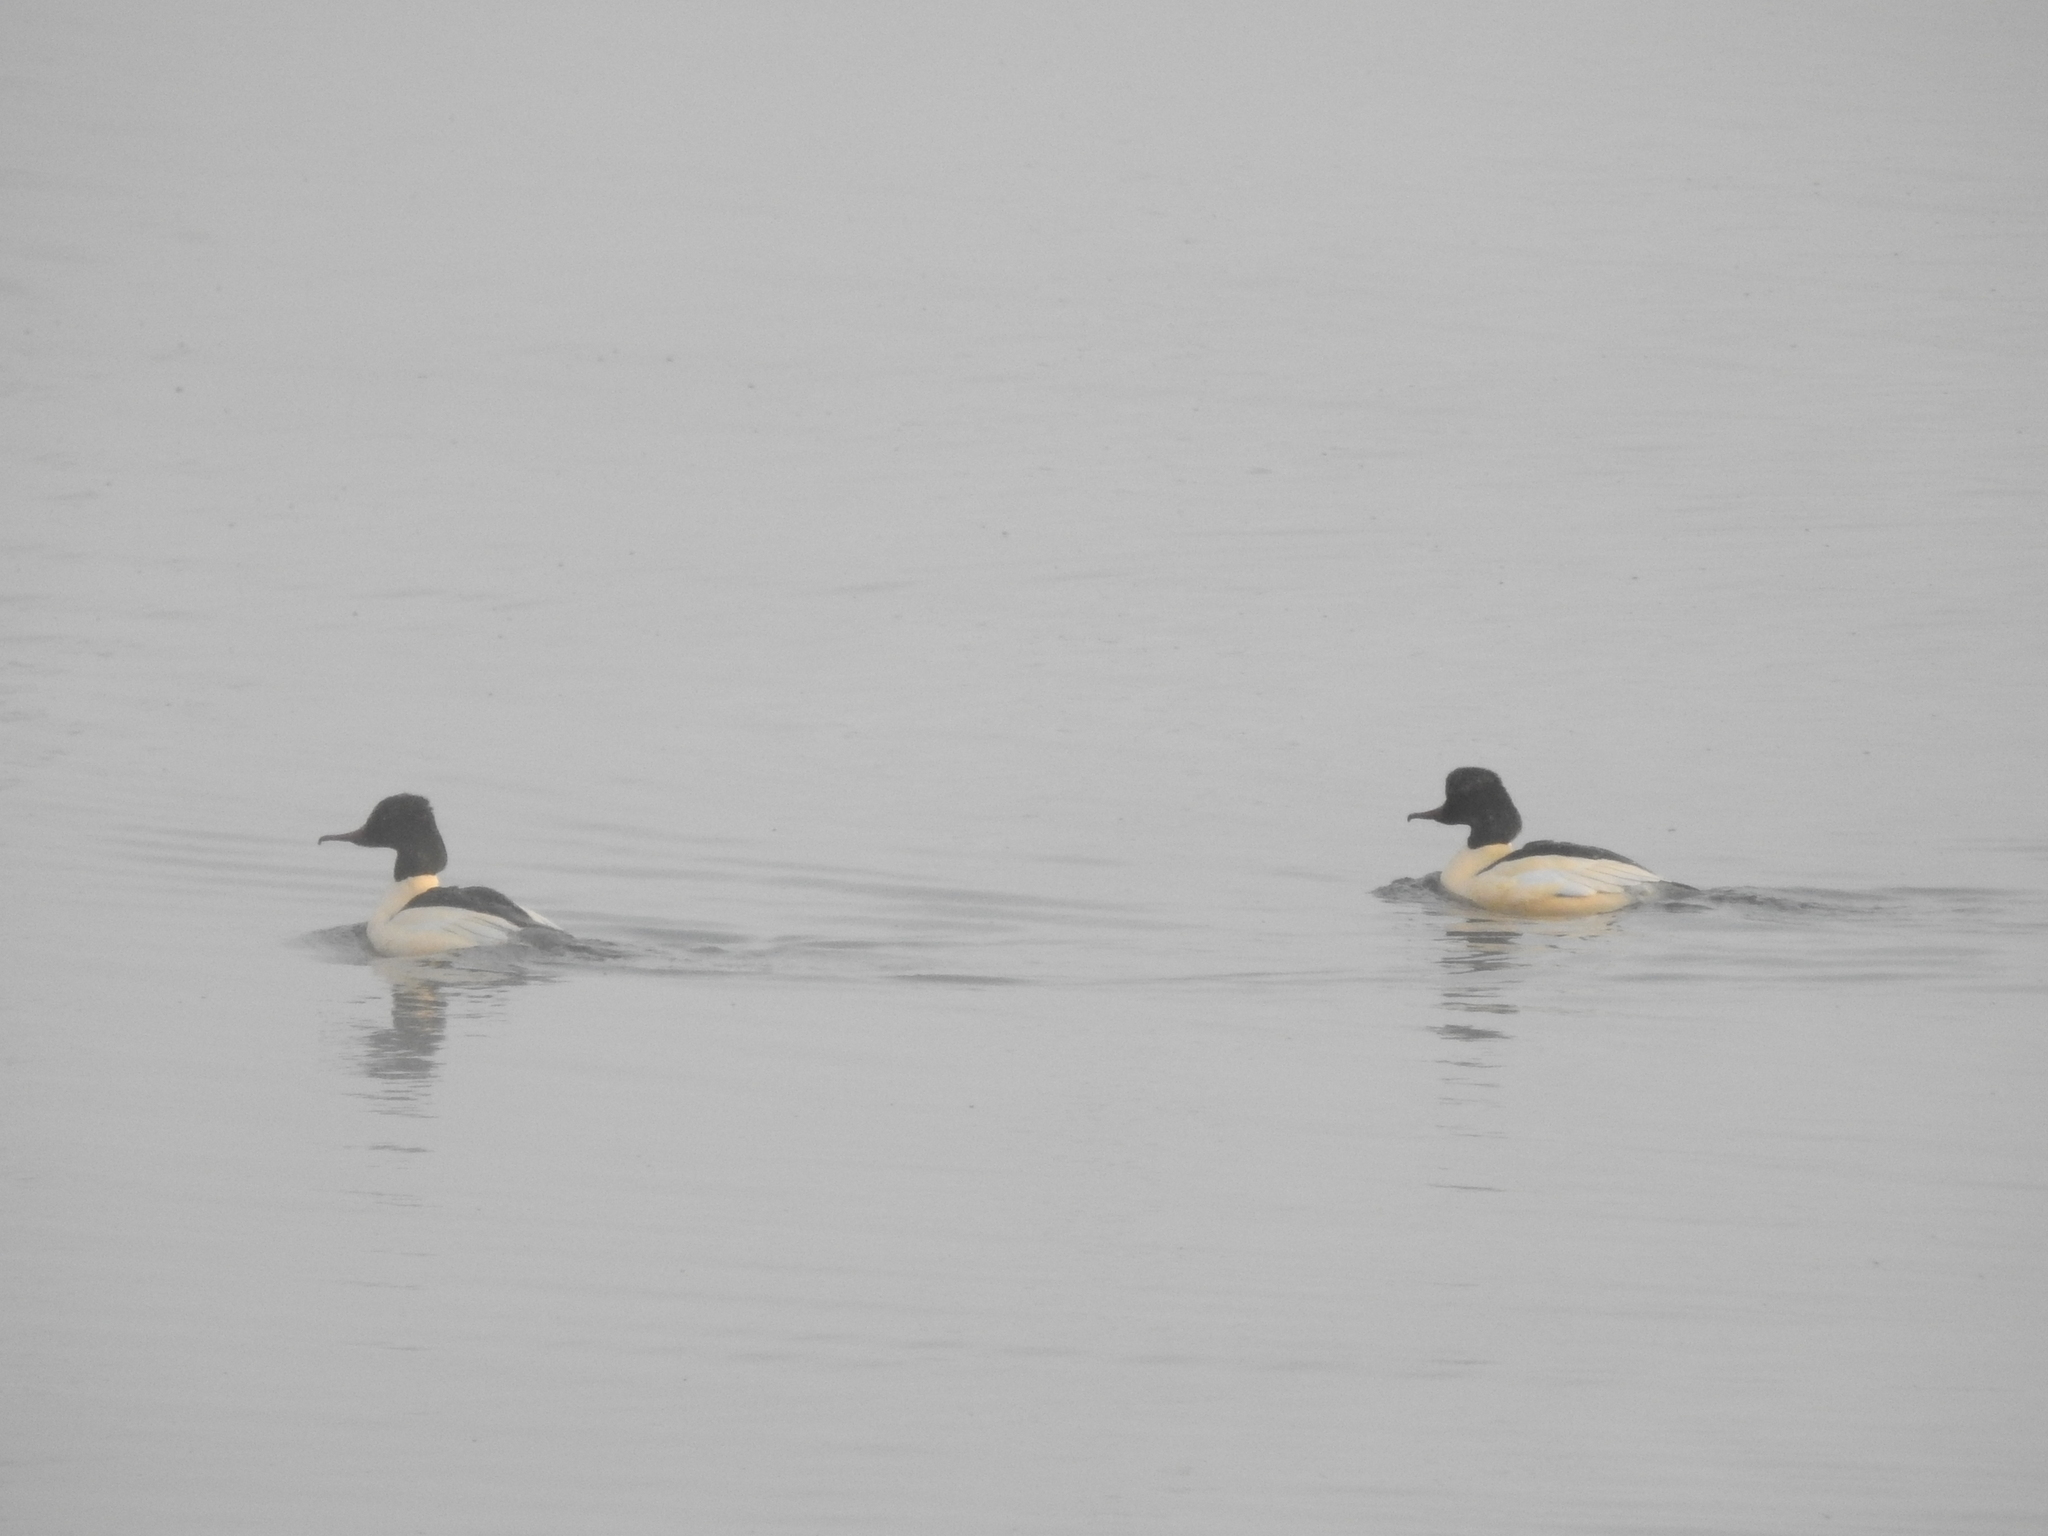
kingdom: Animalia
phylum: Chordata
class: Aves
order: Anseriformes
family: Anatidae
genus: Mergus
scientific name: Mergus merganser
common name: Common merganser
